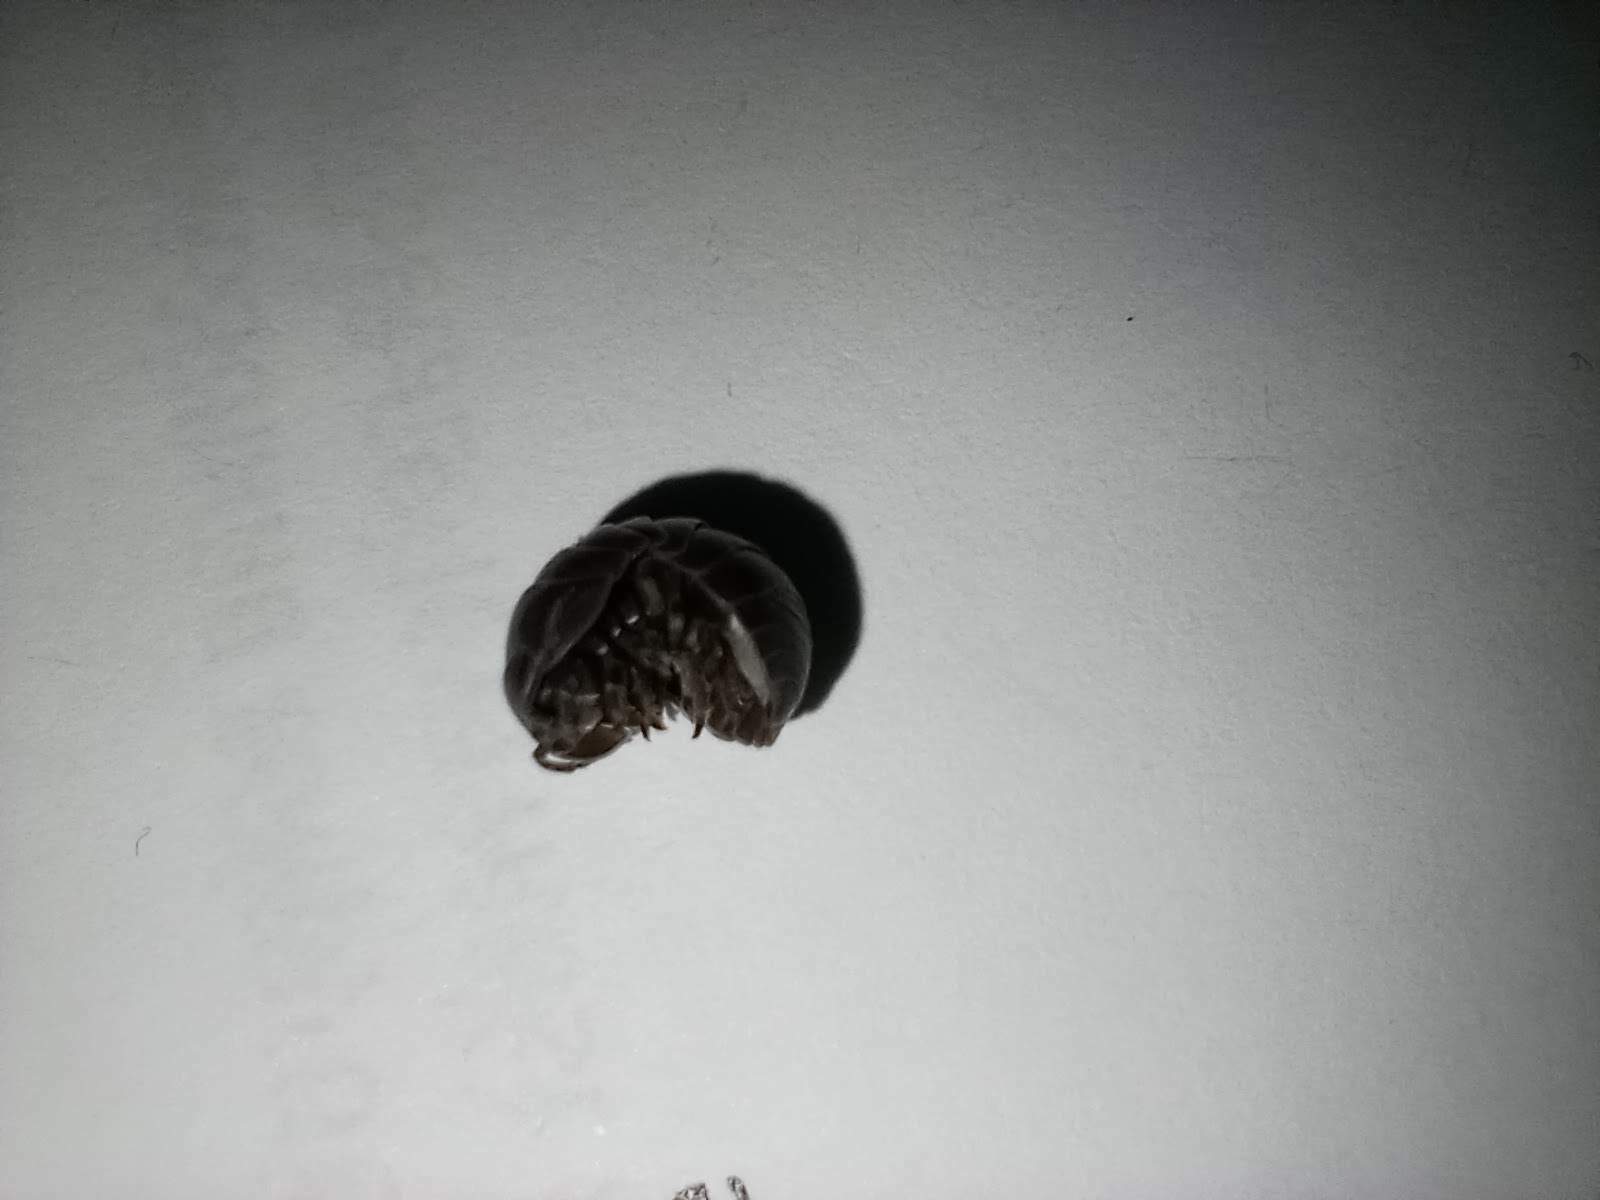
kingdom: Animalia
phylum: Arthropoda
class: Malacostraca
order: Isopoda
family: Armadillidiidae
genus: Armadillidium
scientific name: Armadillidium vulgare
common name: Common pill woodlouse
